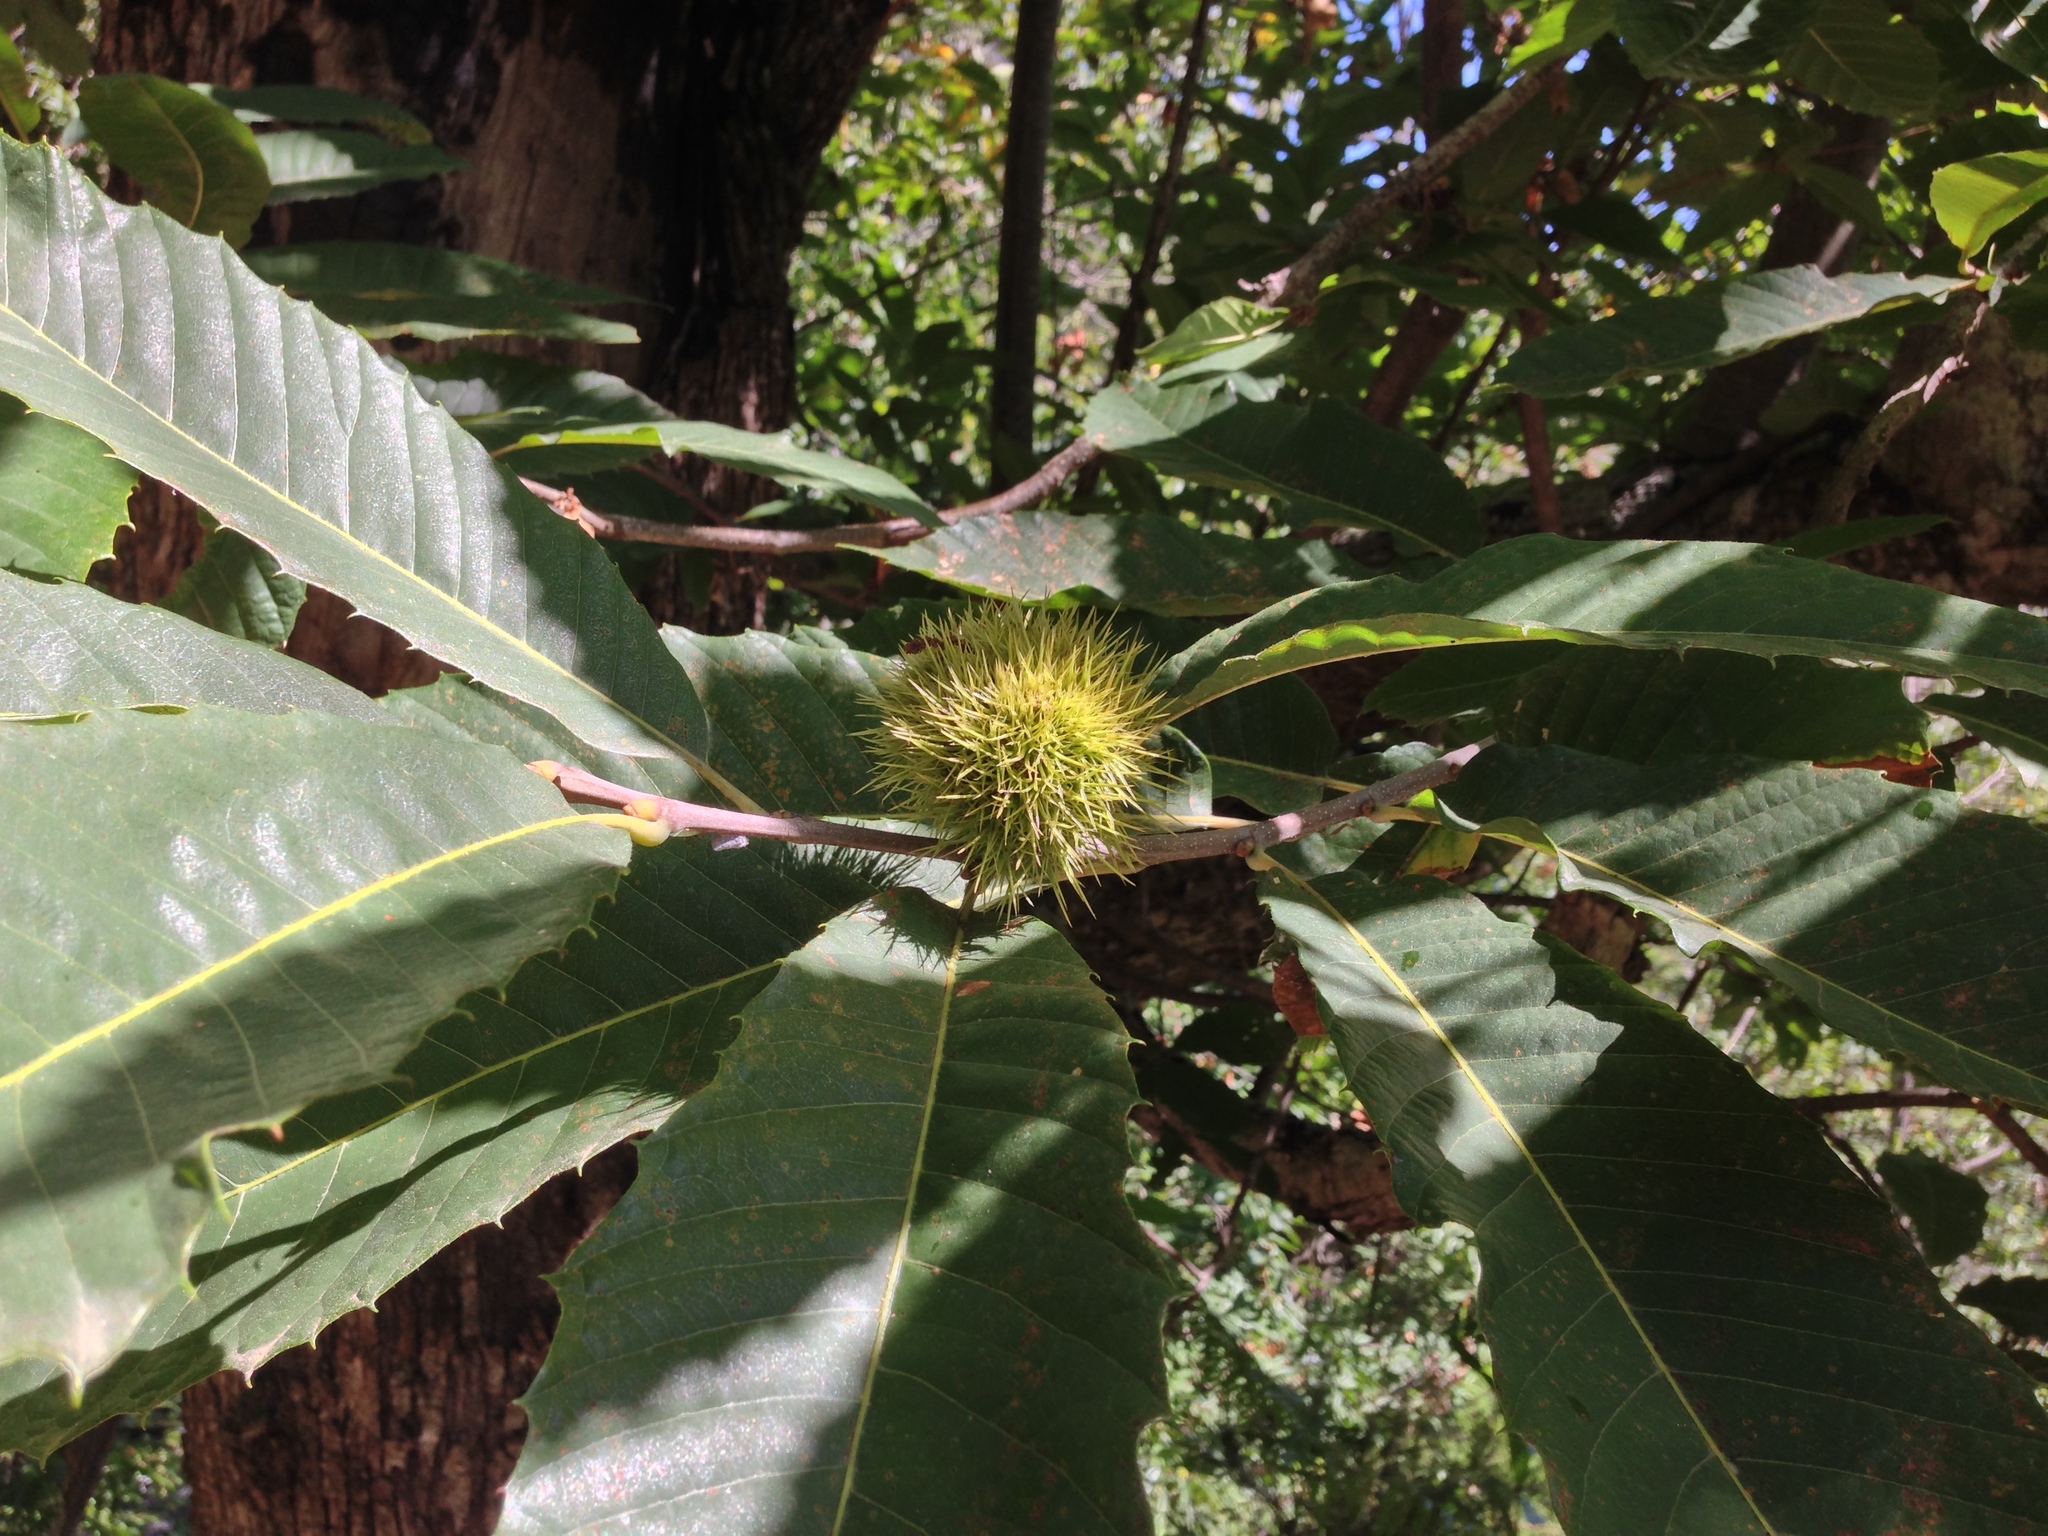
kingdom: Plantae
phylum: Tracheophyta
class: Magnoliopsida
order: Fagales
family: Fagaceae
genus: Castanea
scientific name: Castanea sativa
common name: Sweet chestnut
